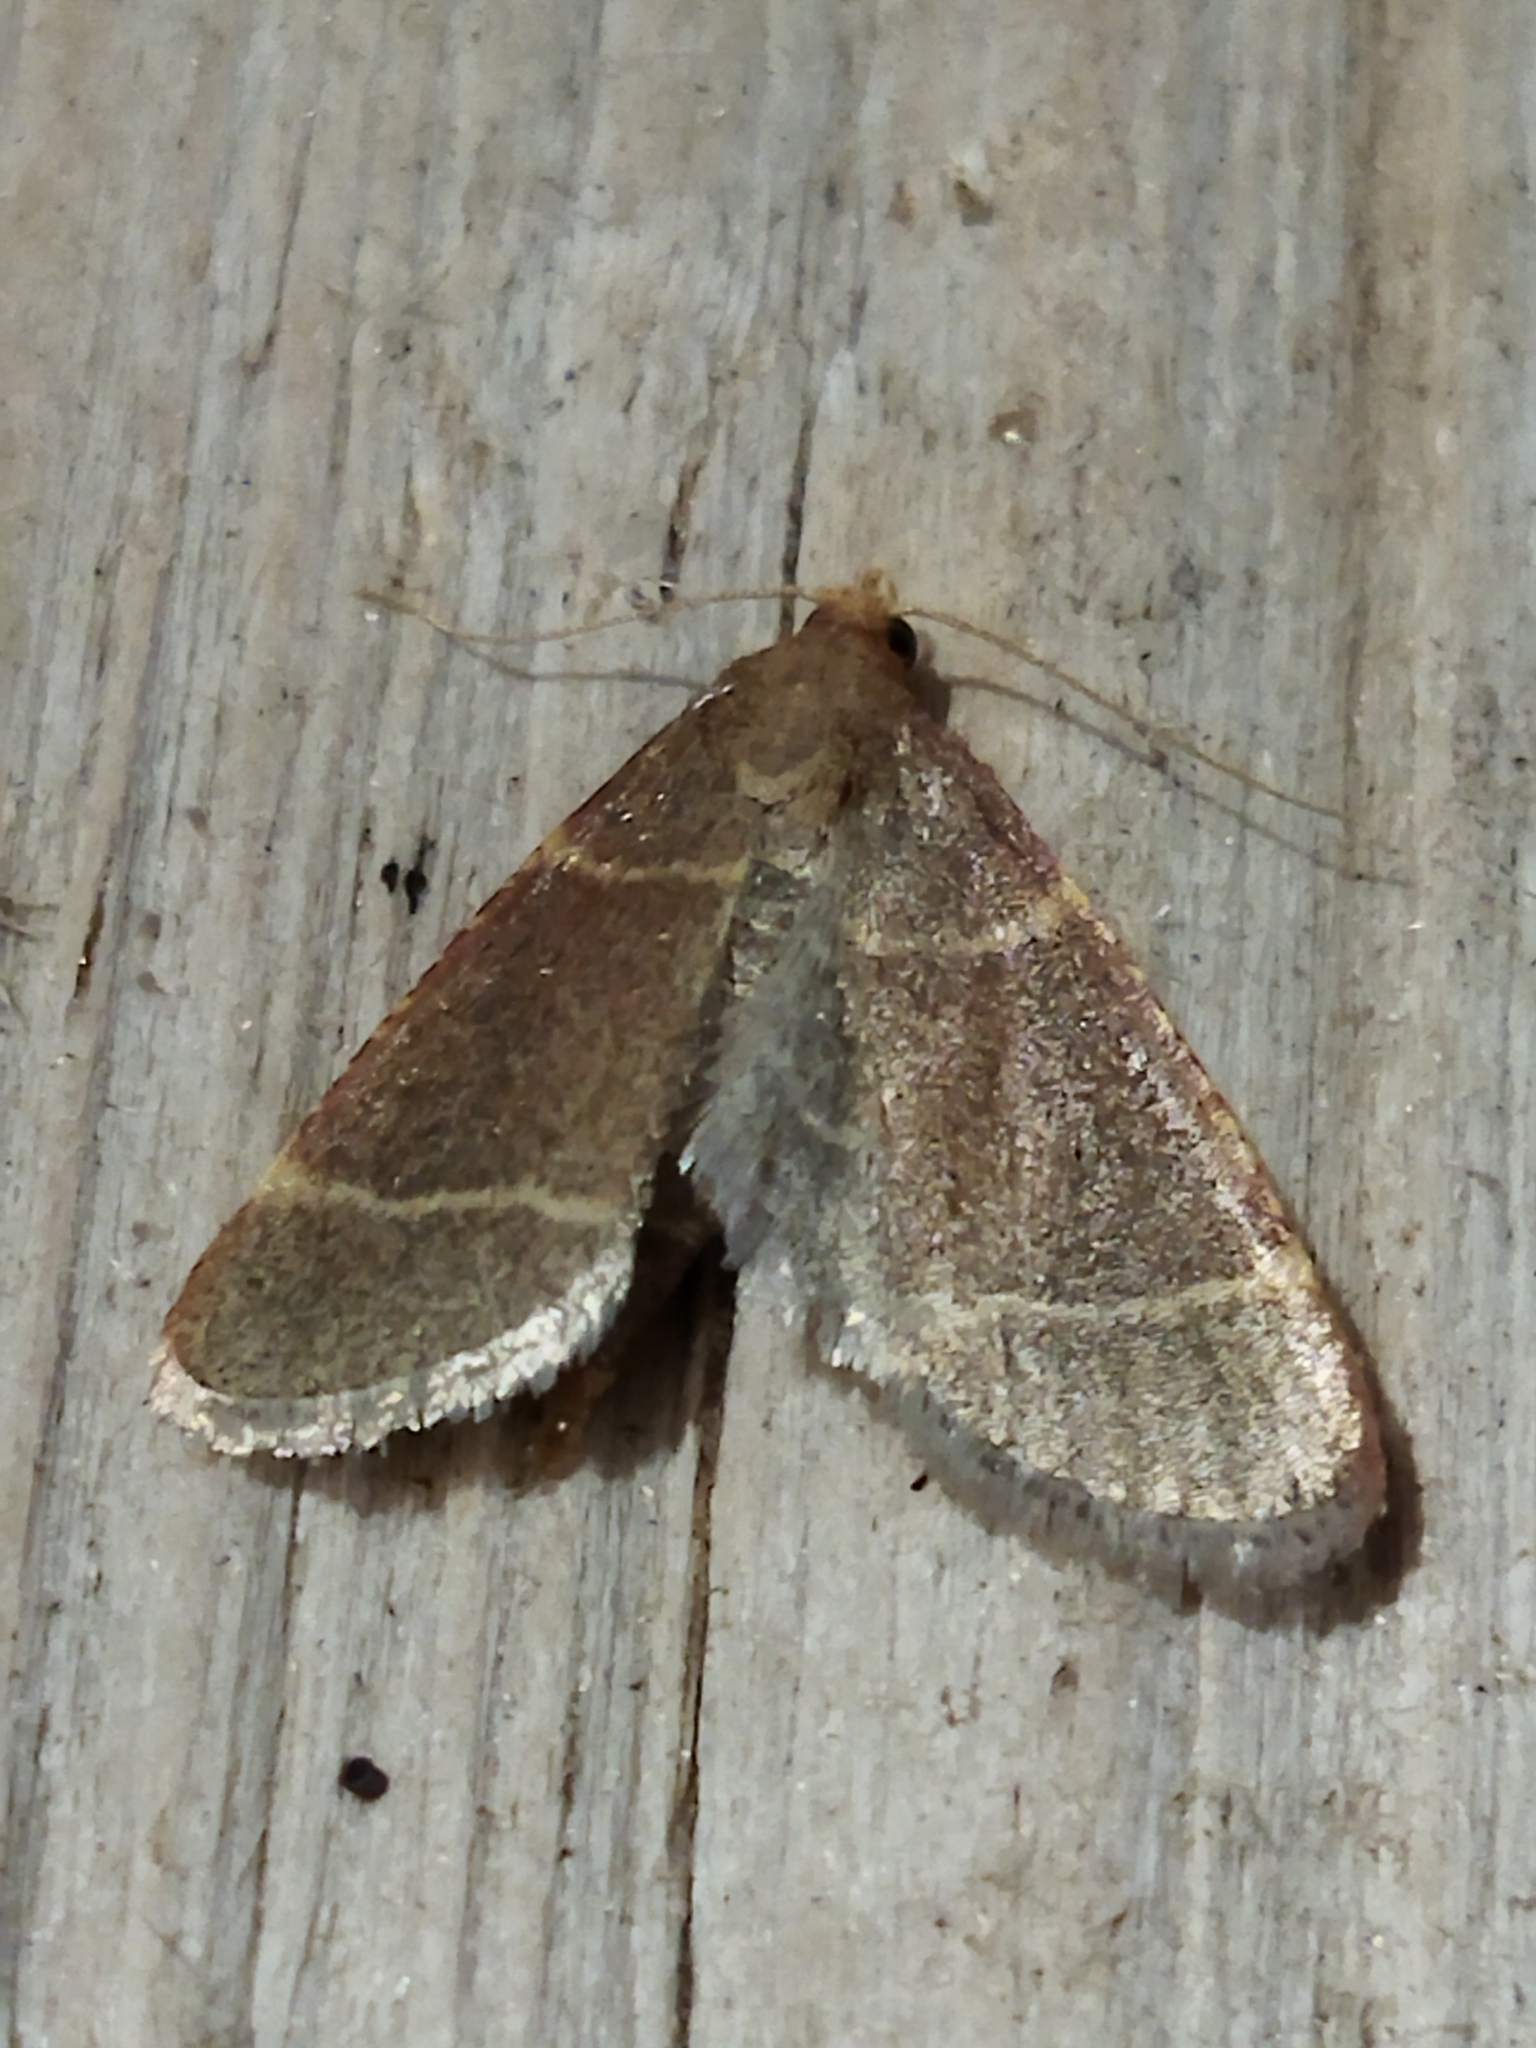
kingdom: Animalia
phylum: Arthropoda
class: Insecta
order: Lepidoptera
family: Pyralidae
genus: Hypsopygia
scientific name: Hypsopygia glaucinalis
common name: Double-striped tabby
